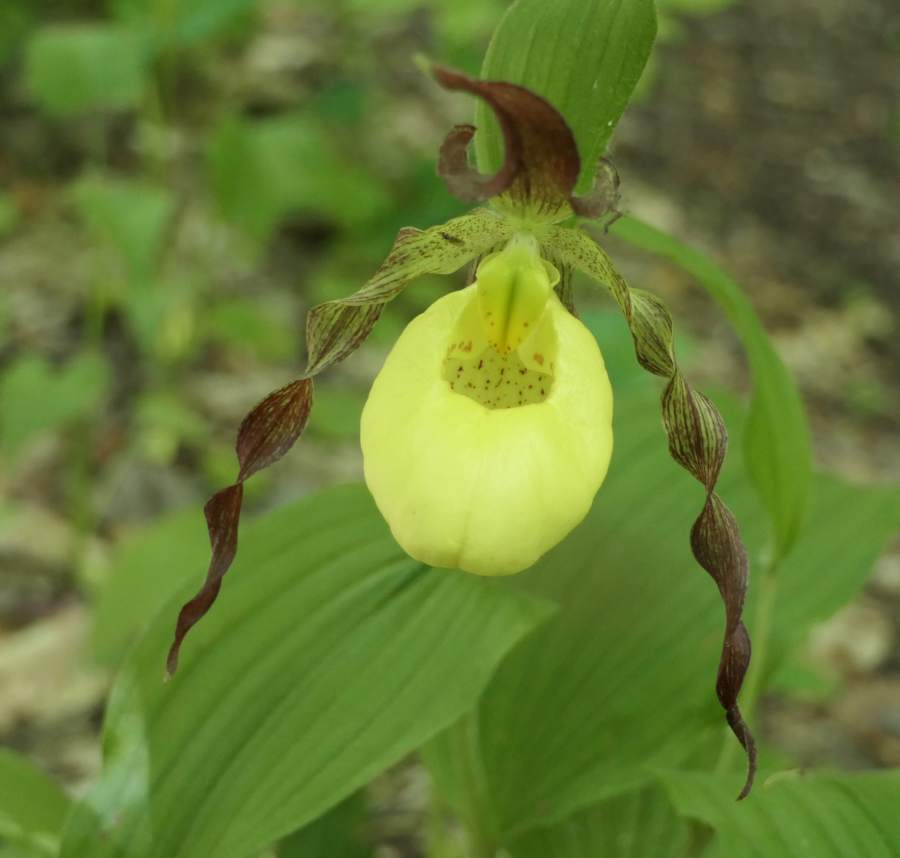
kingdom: Plantae
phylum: Tracheophyta
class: Liliopsida
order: Asparagales
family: Orchidaceae
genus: Cypripedium
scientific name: Cypripedium parviflorum
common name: American yellow lady's-slipper
